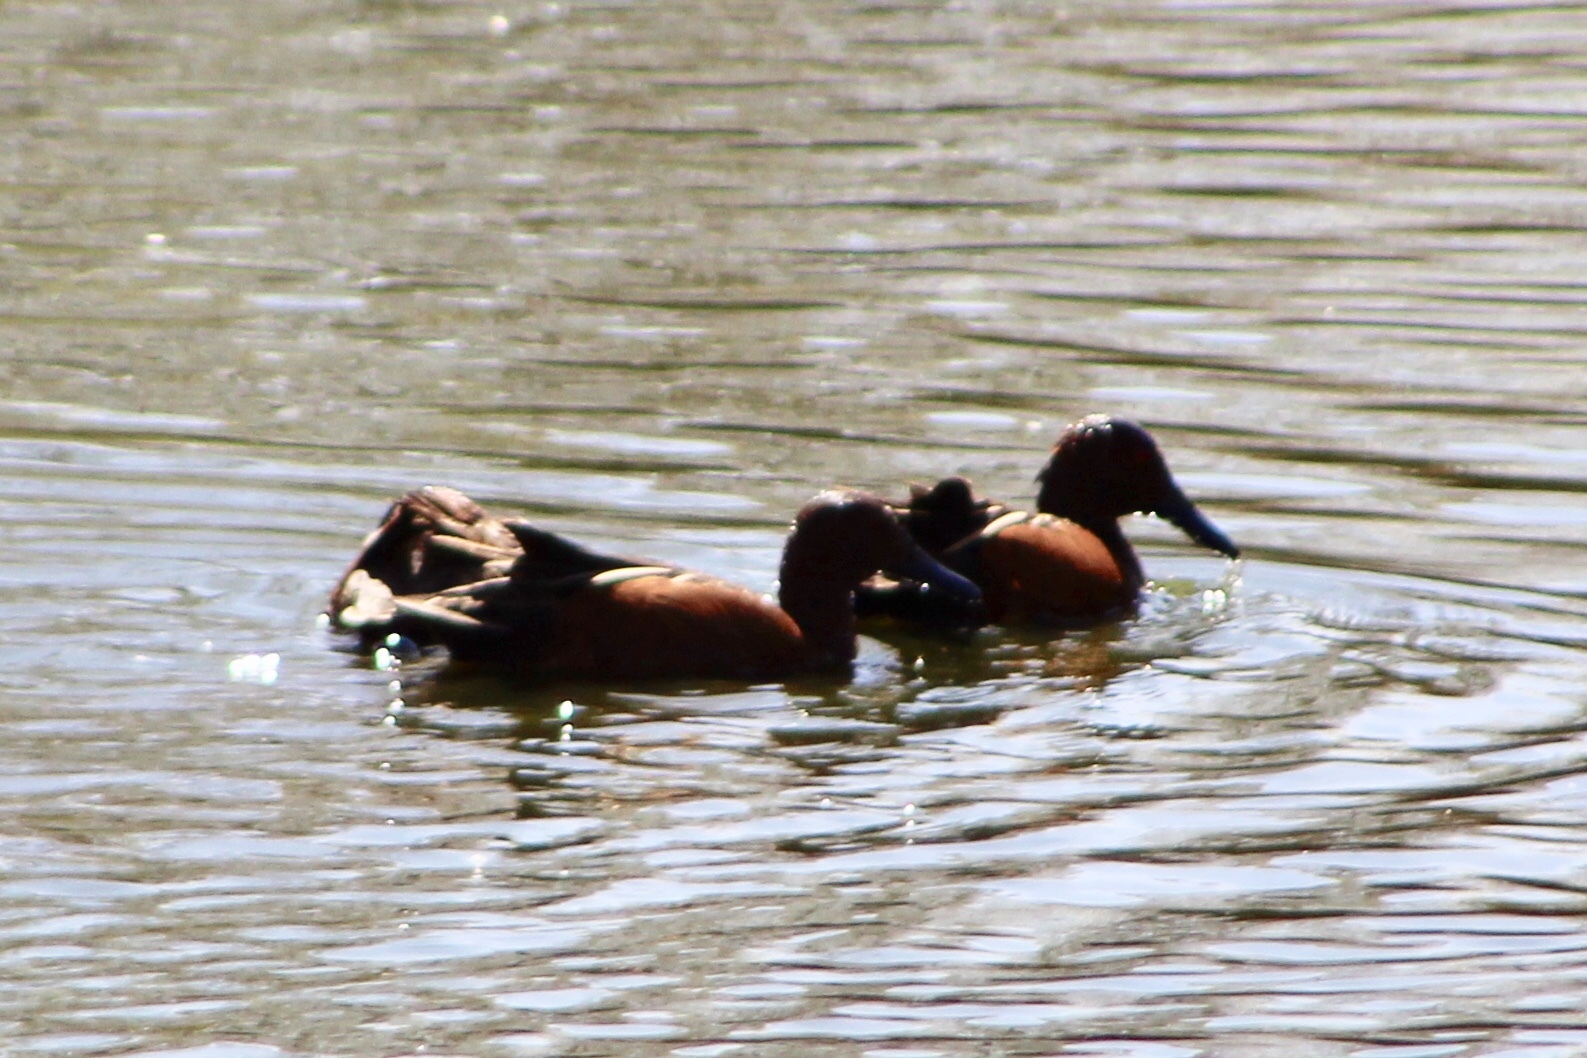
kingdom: Animalia
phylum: Chordata
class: Aves
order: Anseriformes
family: Anatidae
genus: Spatula
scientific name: Spatula cyanoptera
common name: Cinnamon teal
